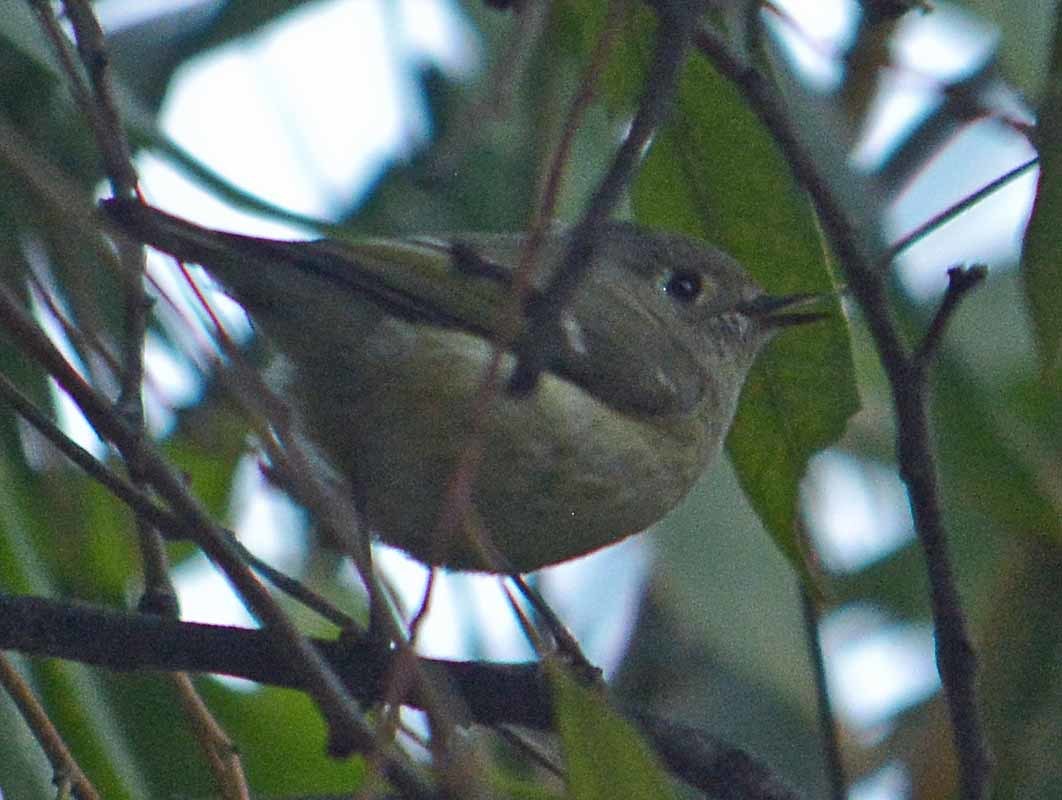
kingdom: Animalia
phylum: Chordata
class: Aves
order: Passeriformes
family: Regulidae
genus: Regulus
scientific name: Regulus calendula
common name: Ruby-crowned kinglet
